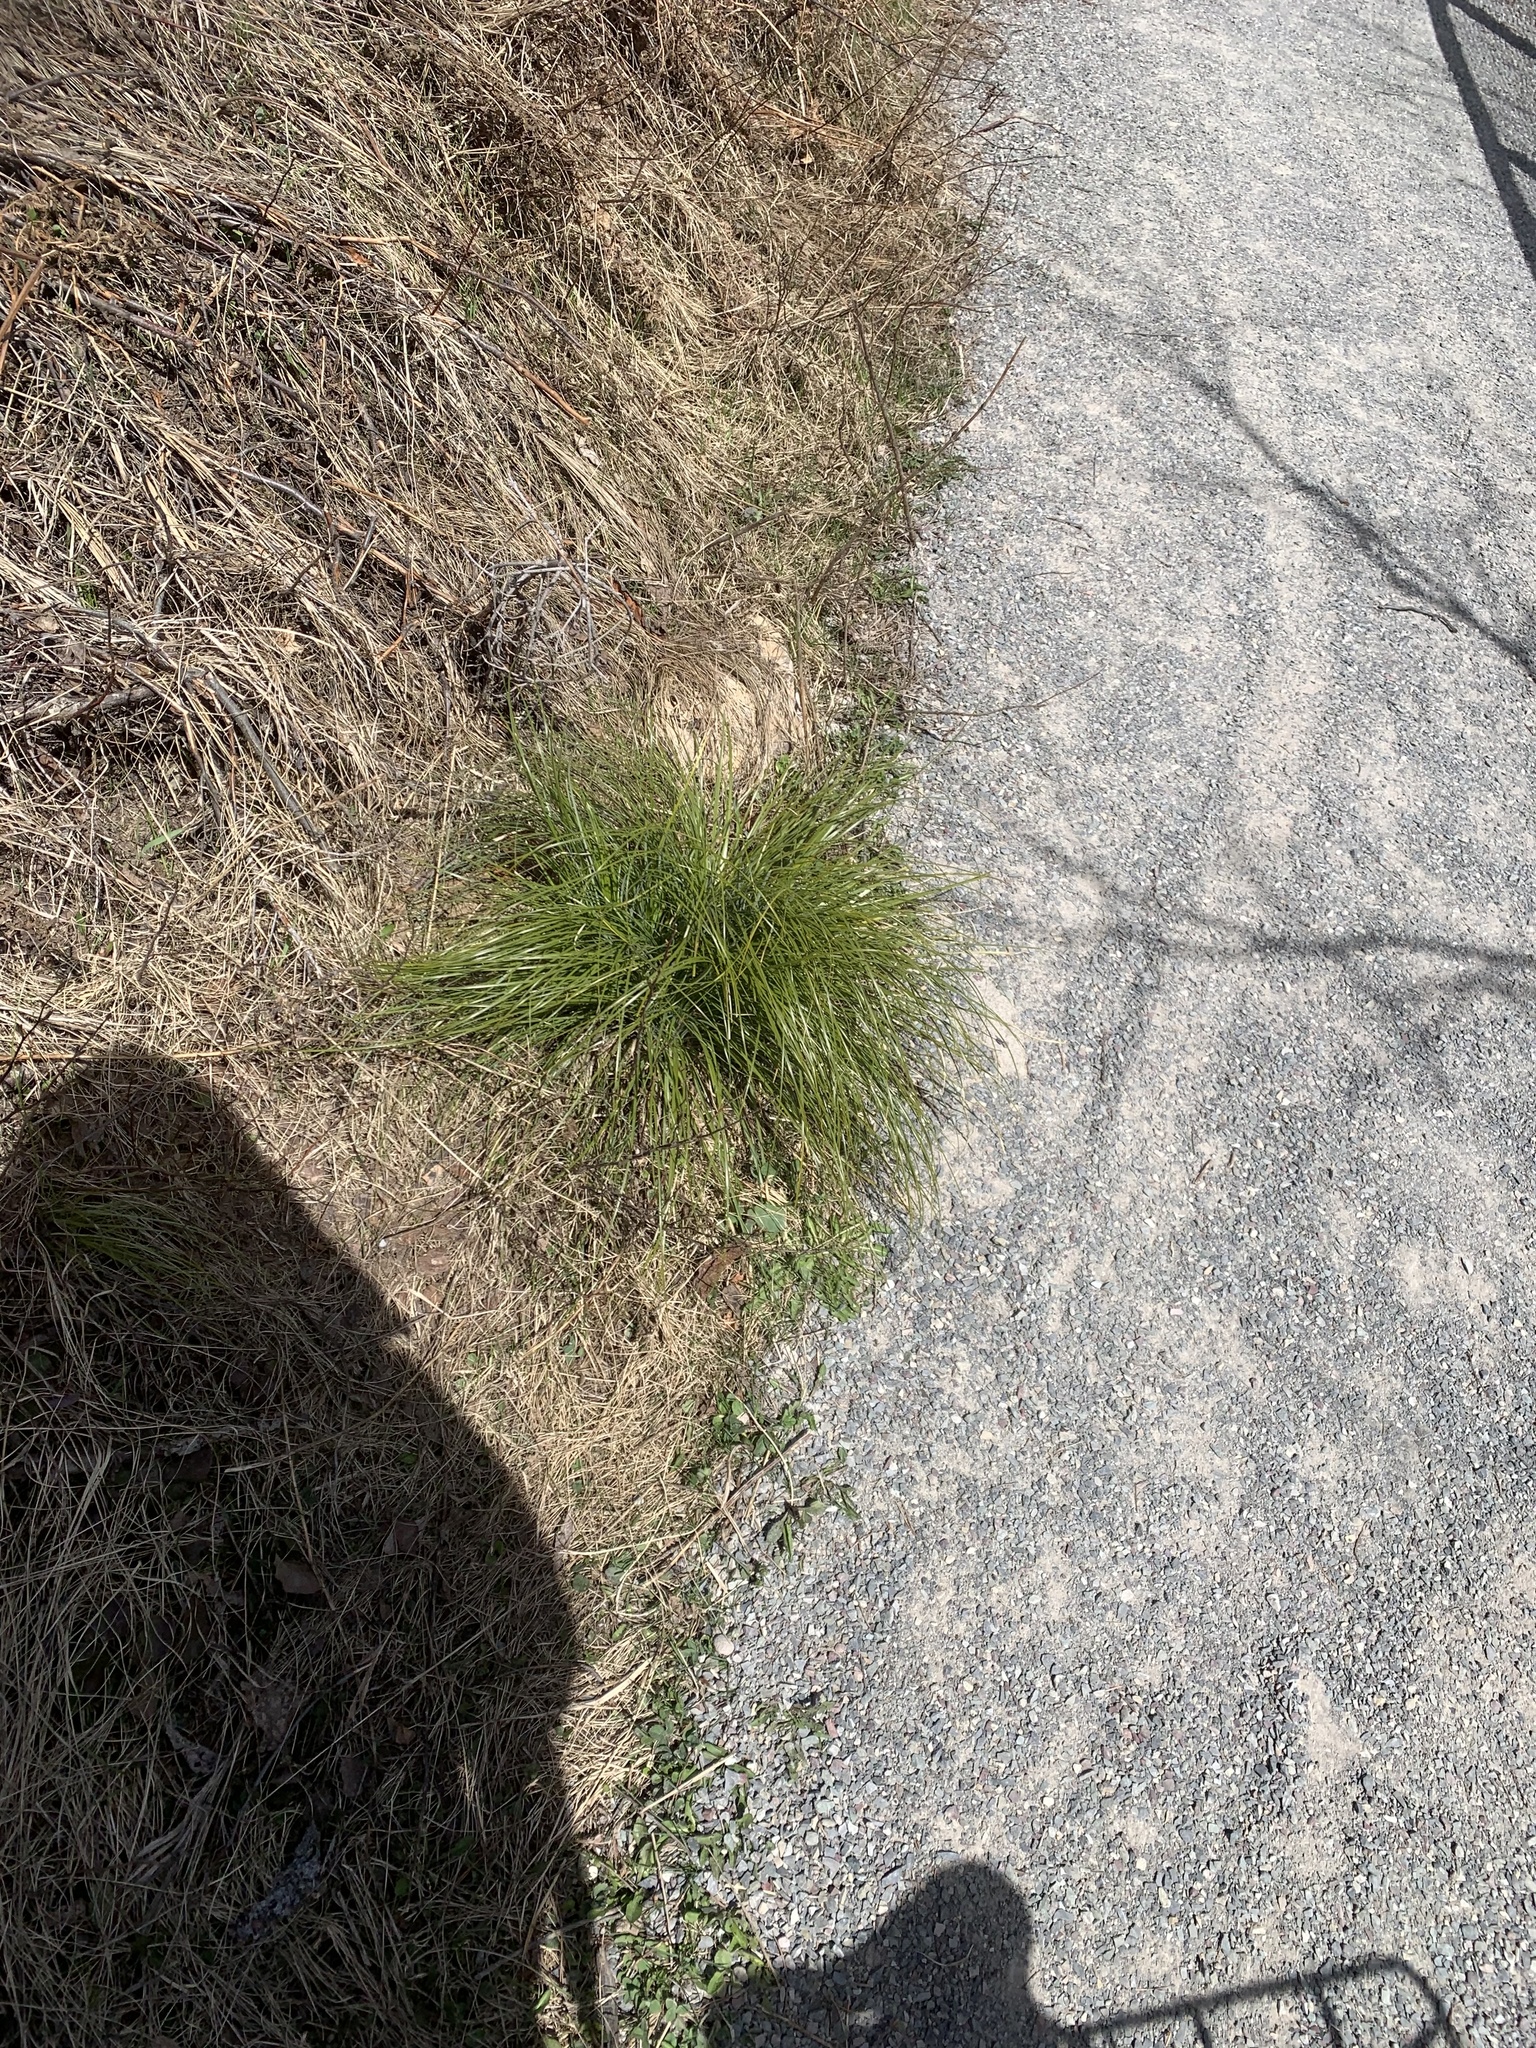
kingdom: Plantae
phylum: Tracheophyta
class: Liliopsida
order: Liliales
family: Melanthiaceae
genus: Xerophyllum
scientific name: Xerophyllum tenax
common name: Bear-grass
